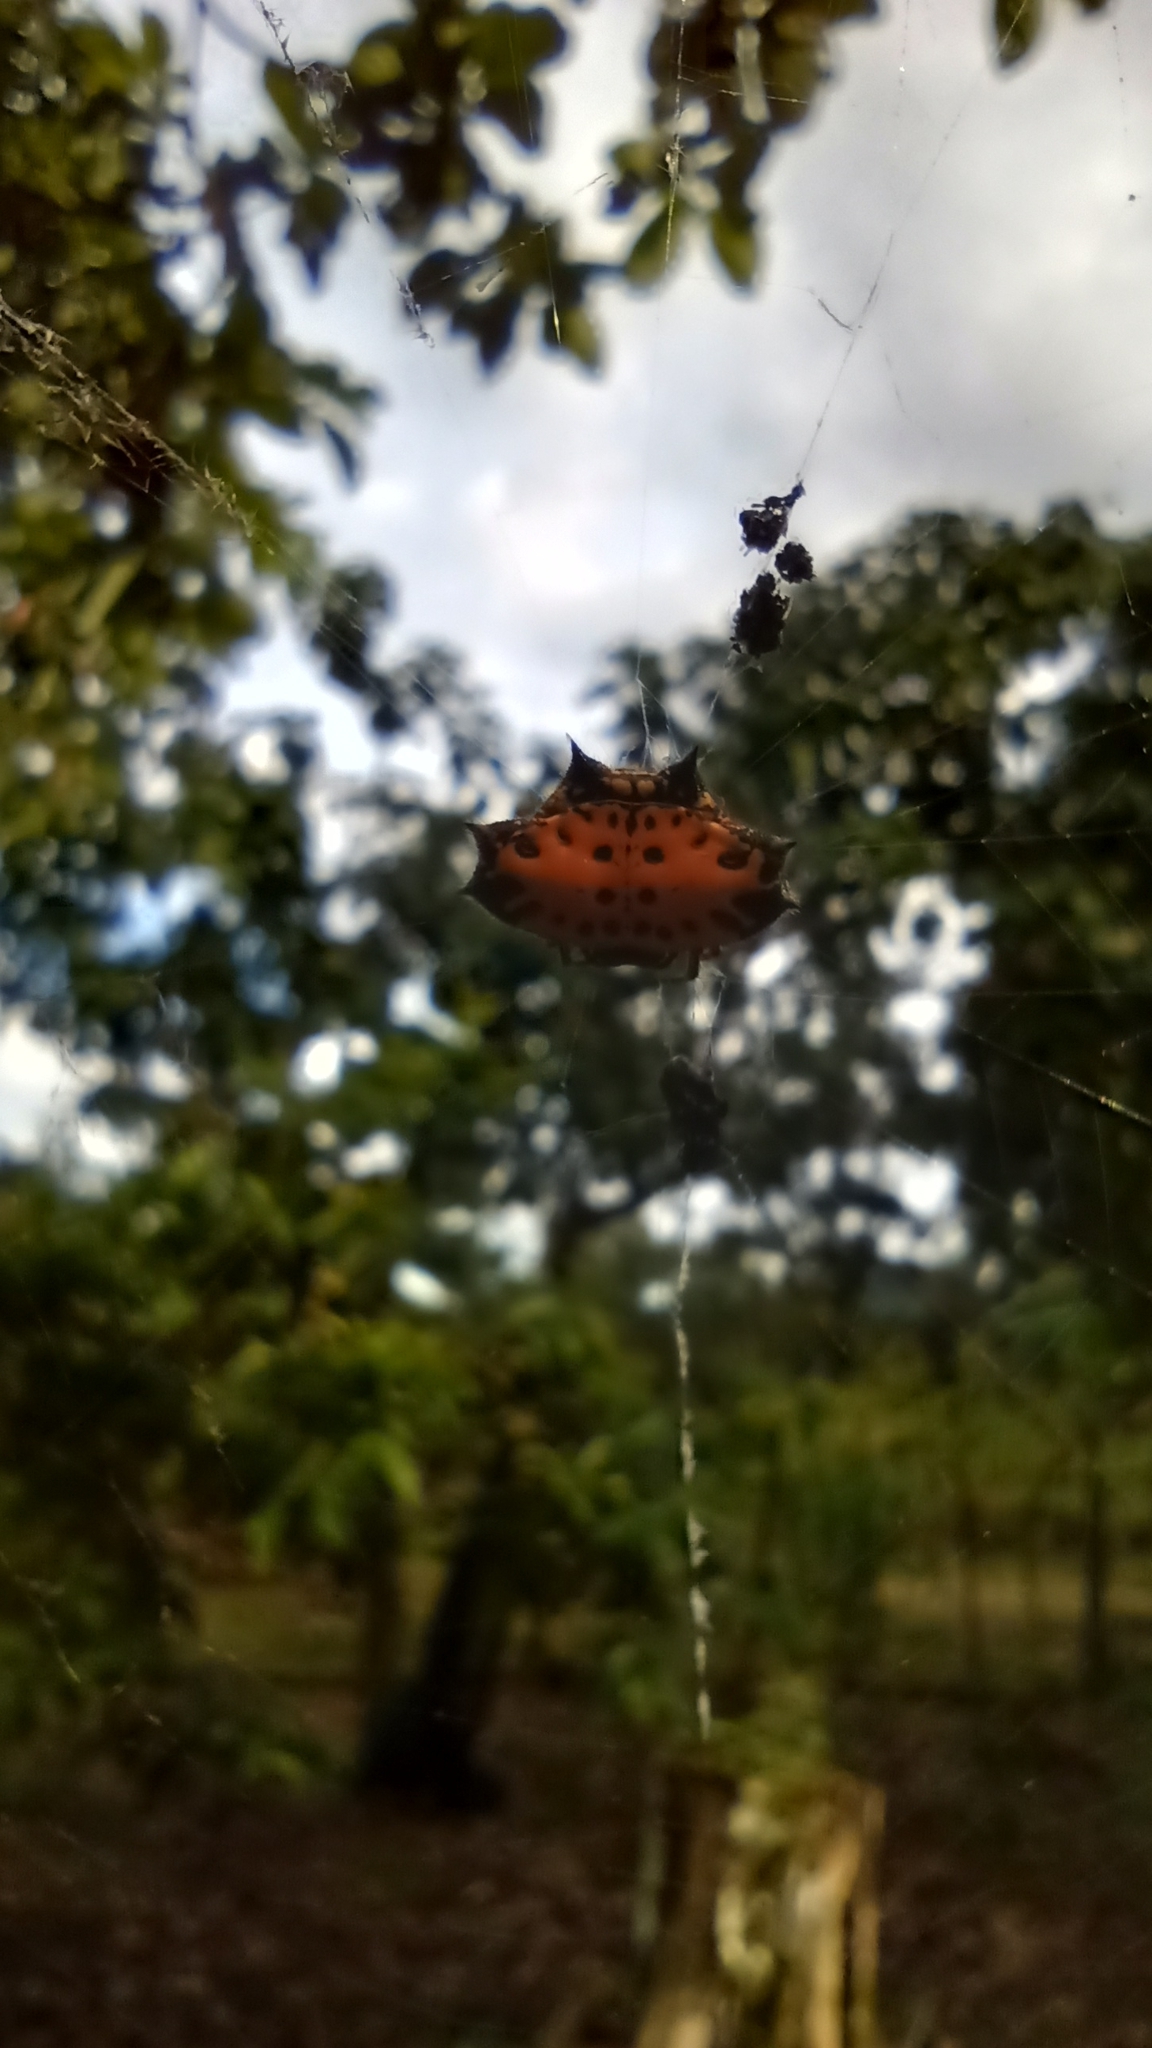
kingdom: Animalia
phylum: Arthropoda
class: Arachnida
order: Araneae
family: Araneidae
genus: Gasteracantha
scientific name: Gasteracantha cancriformis
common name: Orb weavers
